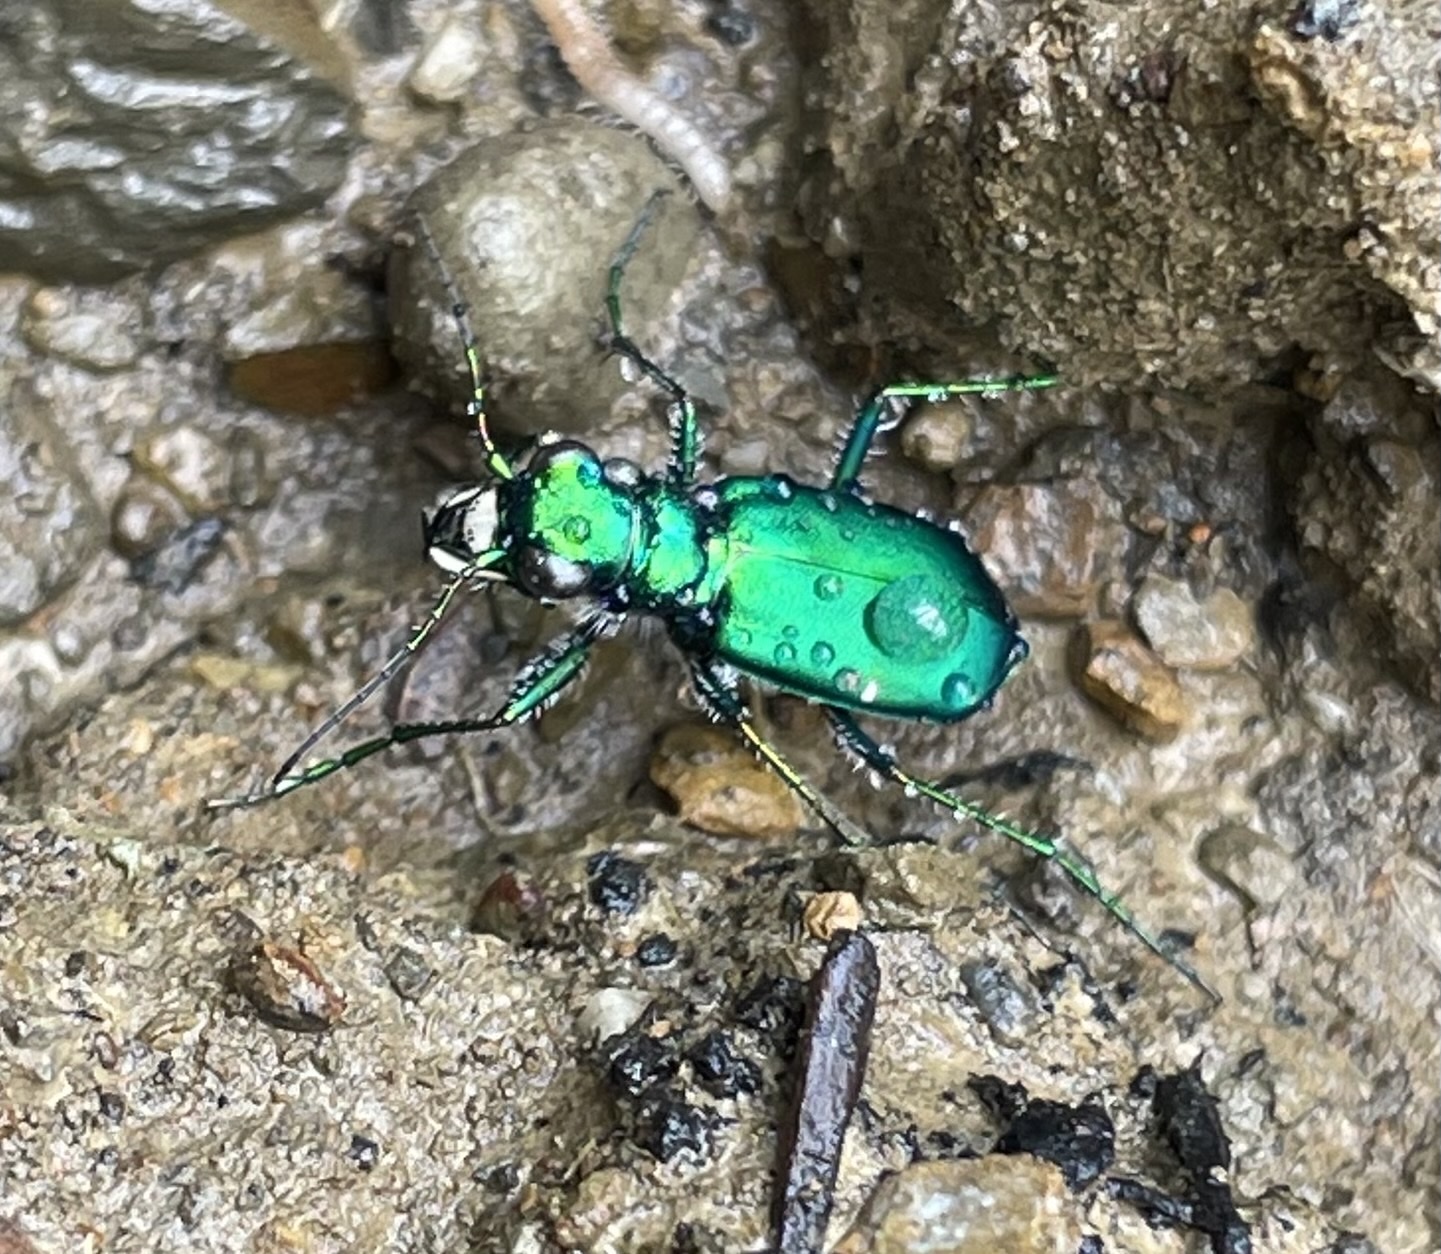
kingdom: Animalia
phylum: Arthropoda
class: Insecta
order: Coleoptera
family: Carabidae
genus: Cicindela
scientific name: Cicindela sexguttata
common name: Six-spotted tiger beetle
